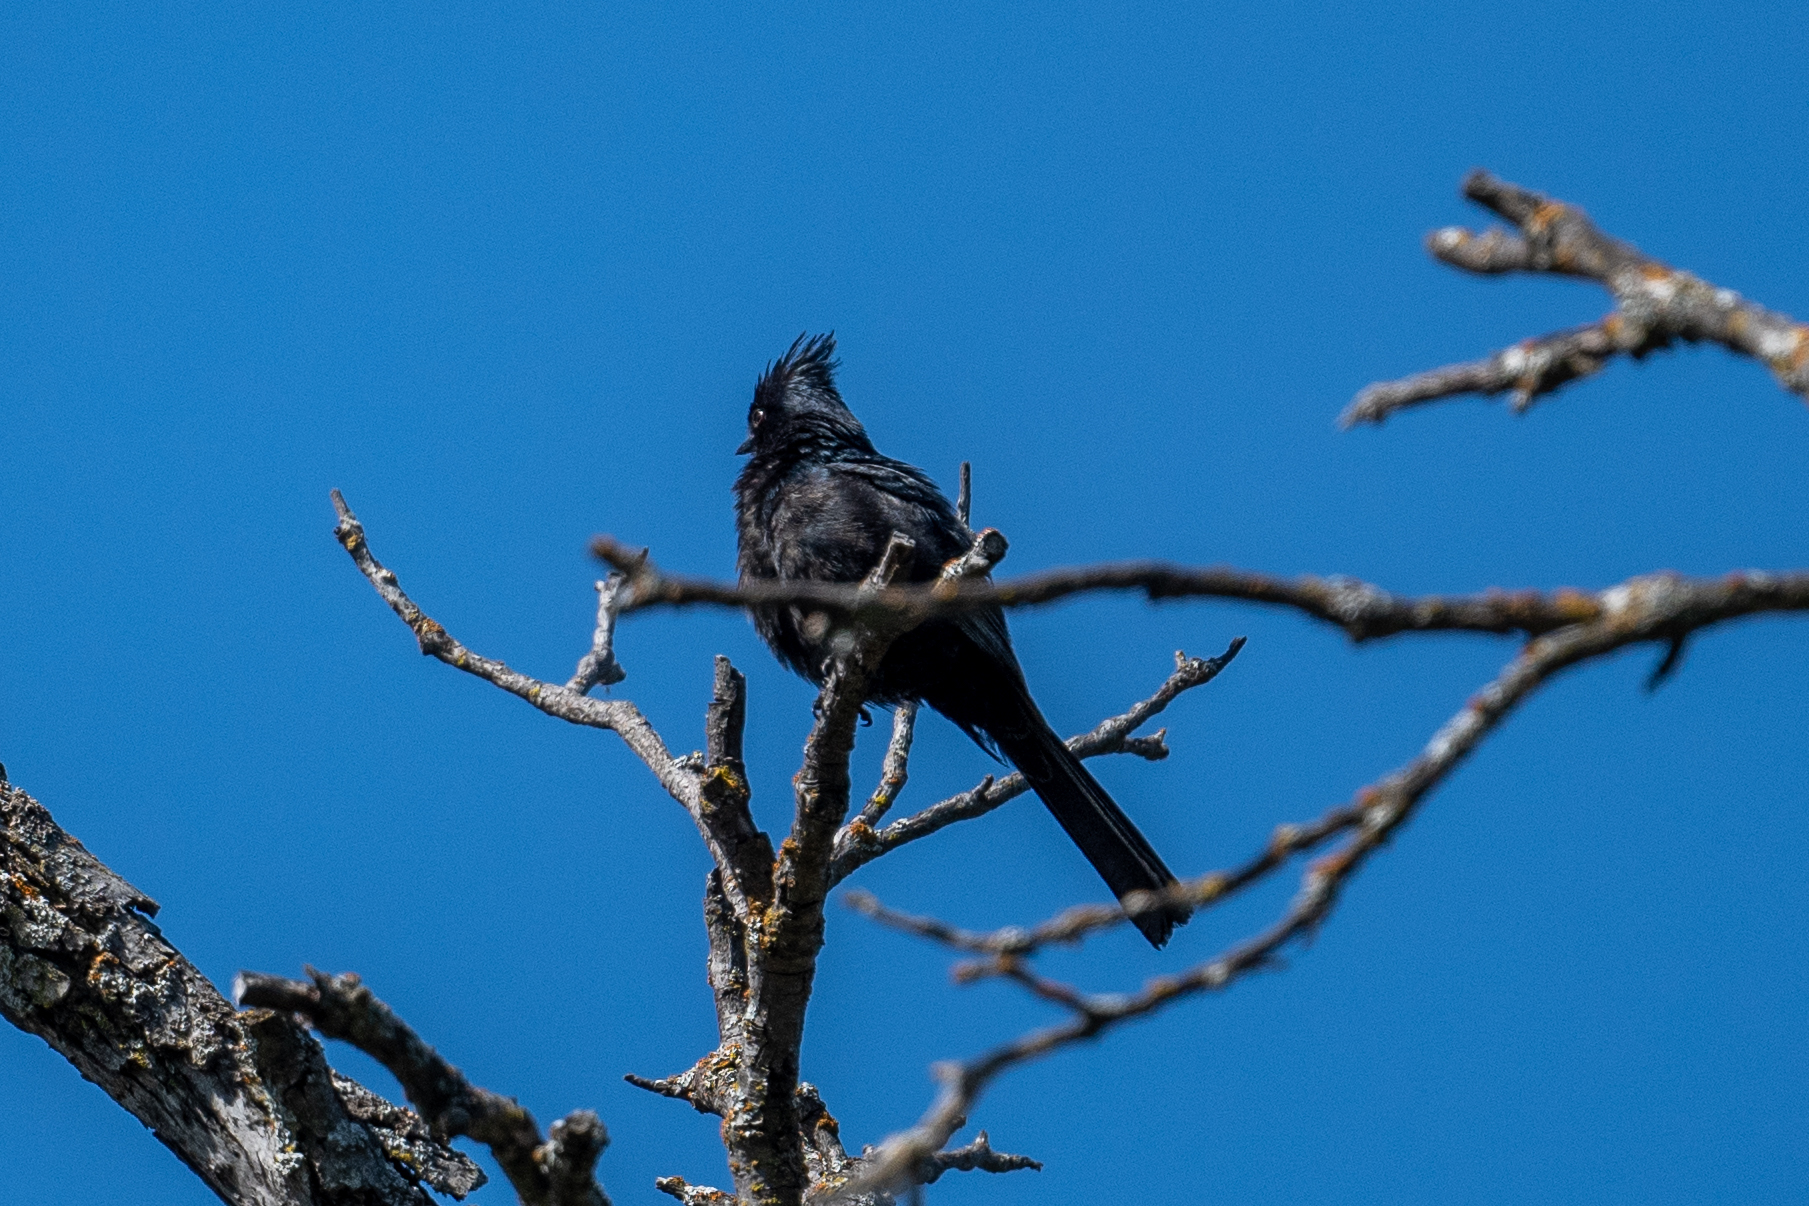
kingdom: Animalia
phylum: Chordata
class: Aves
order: Passeriformes
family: Ptilogonatidae
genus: Phainopepla
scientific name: Phainopepla nitens
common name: Phainopepla
